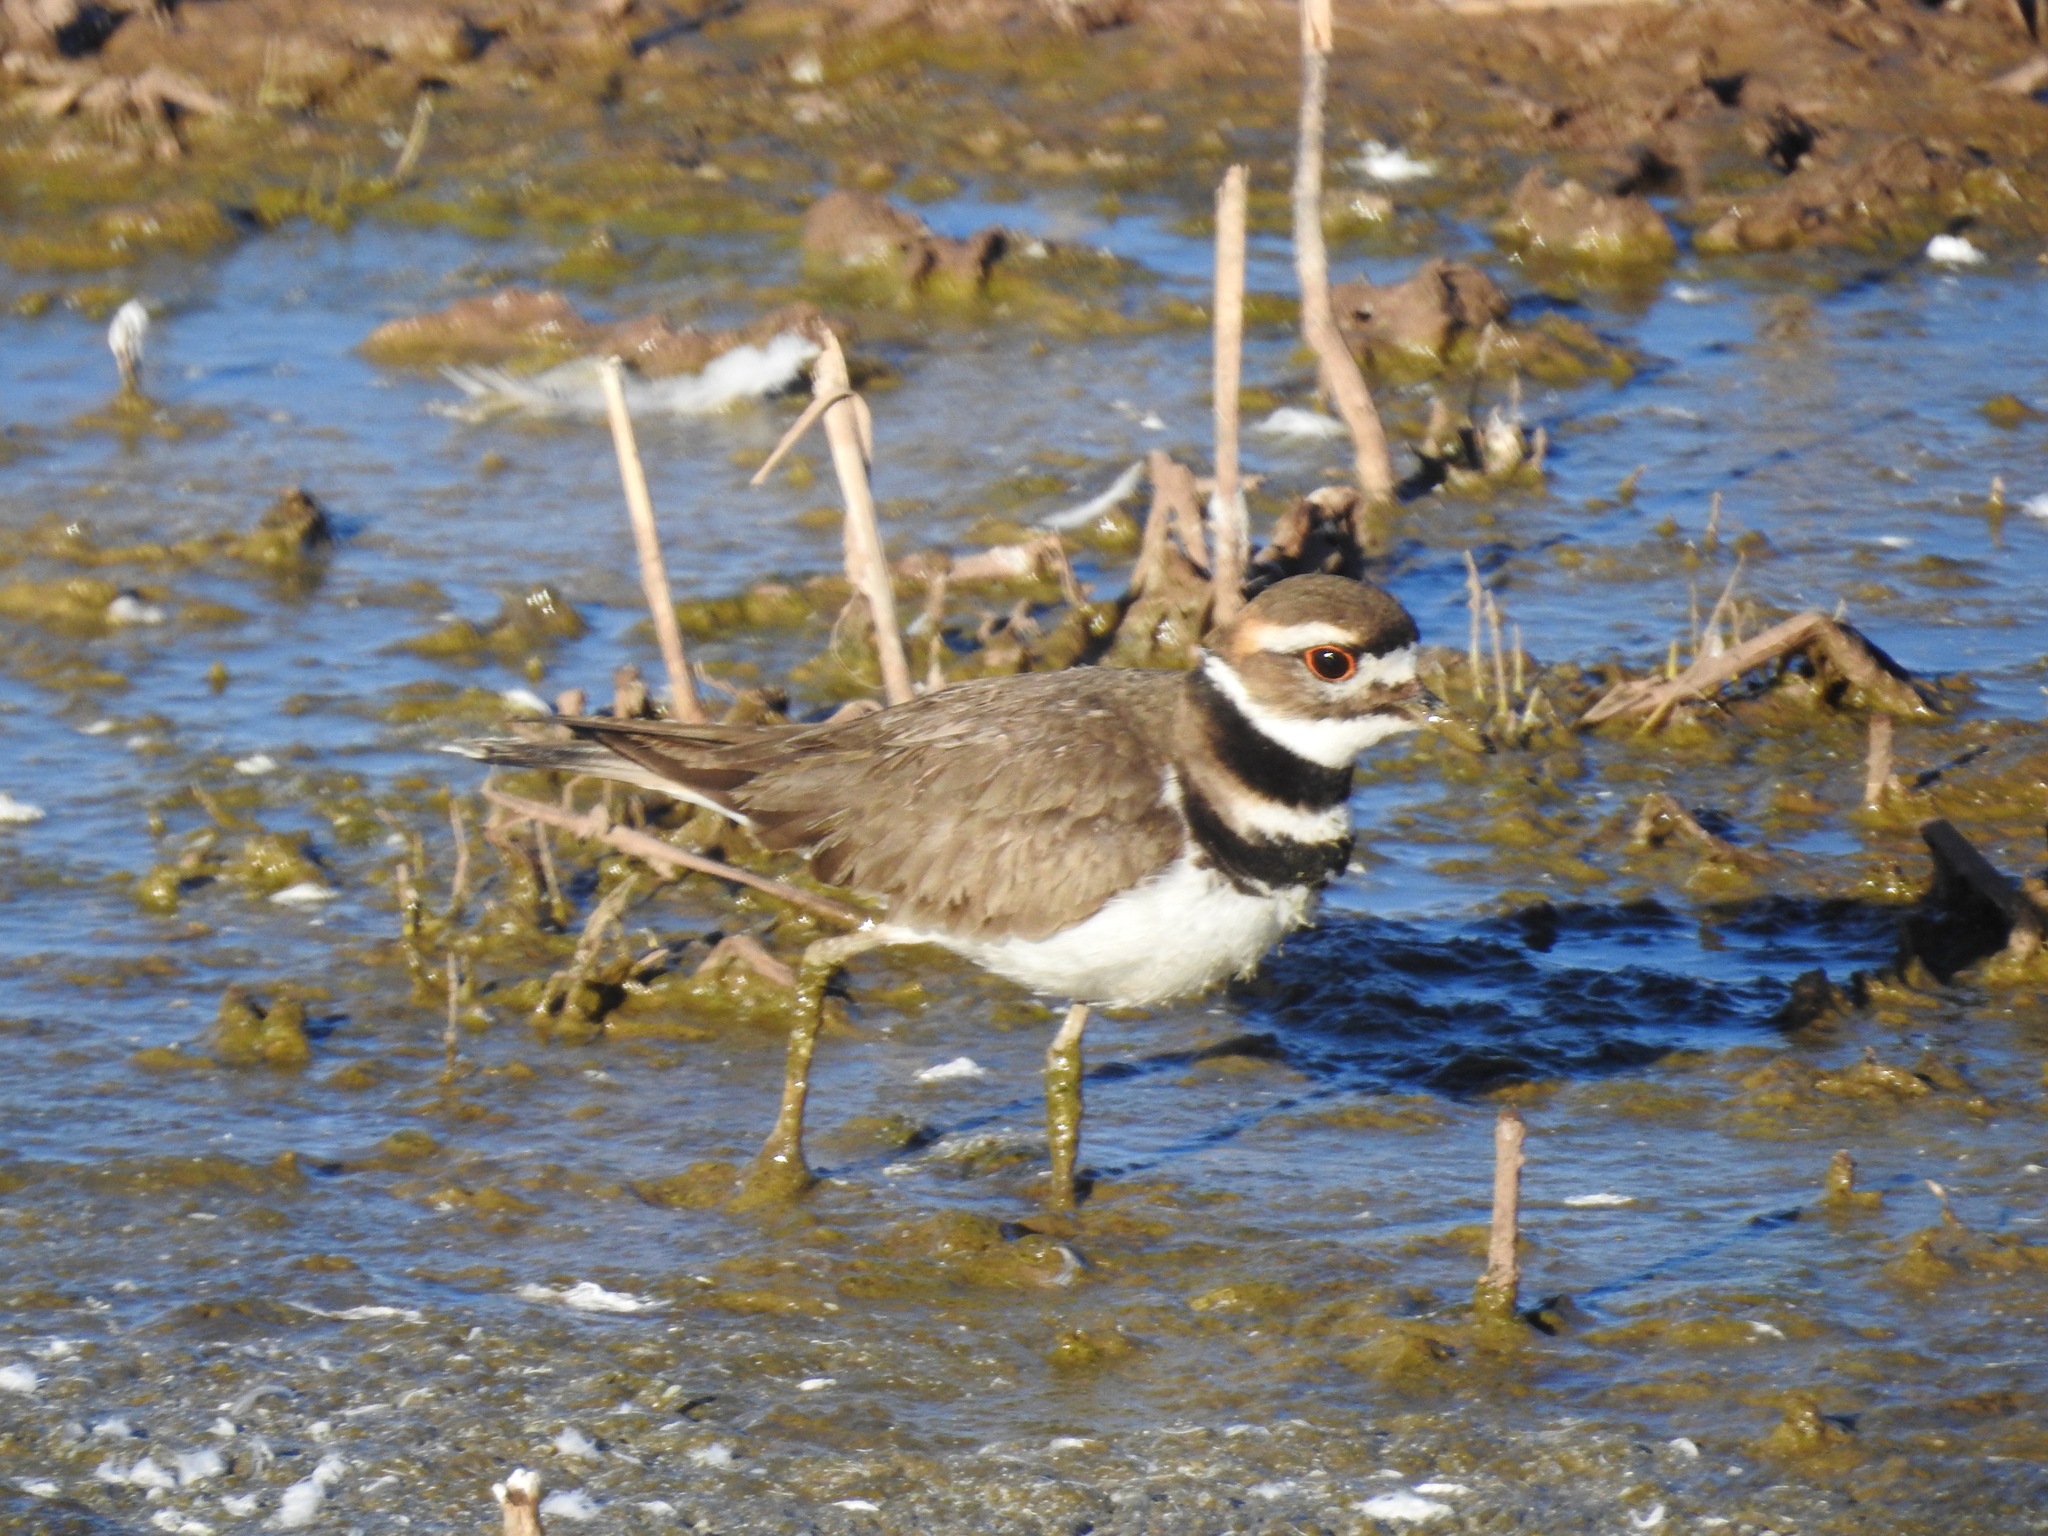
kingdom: Animalia
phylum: Chordata
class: Aves
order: Charadriiformes
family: Charadriidae
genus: Charadrius
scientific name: Charadrius vociferus
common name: Killdeer
